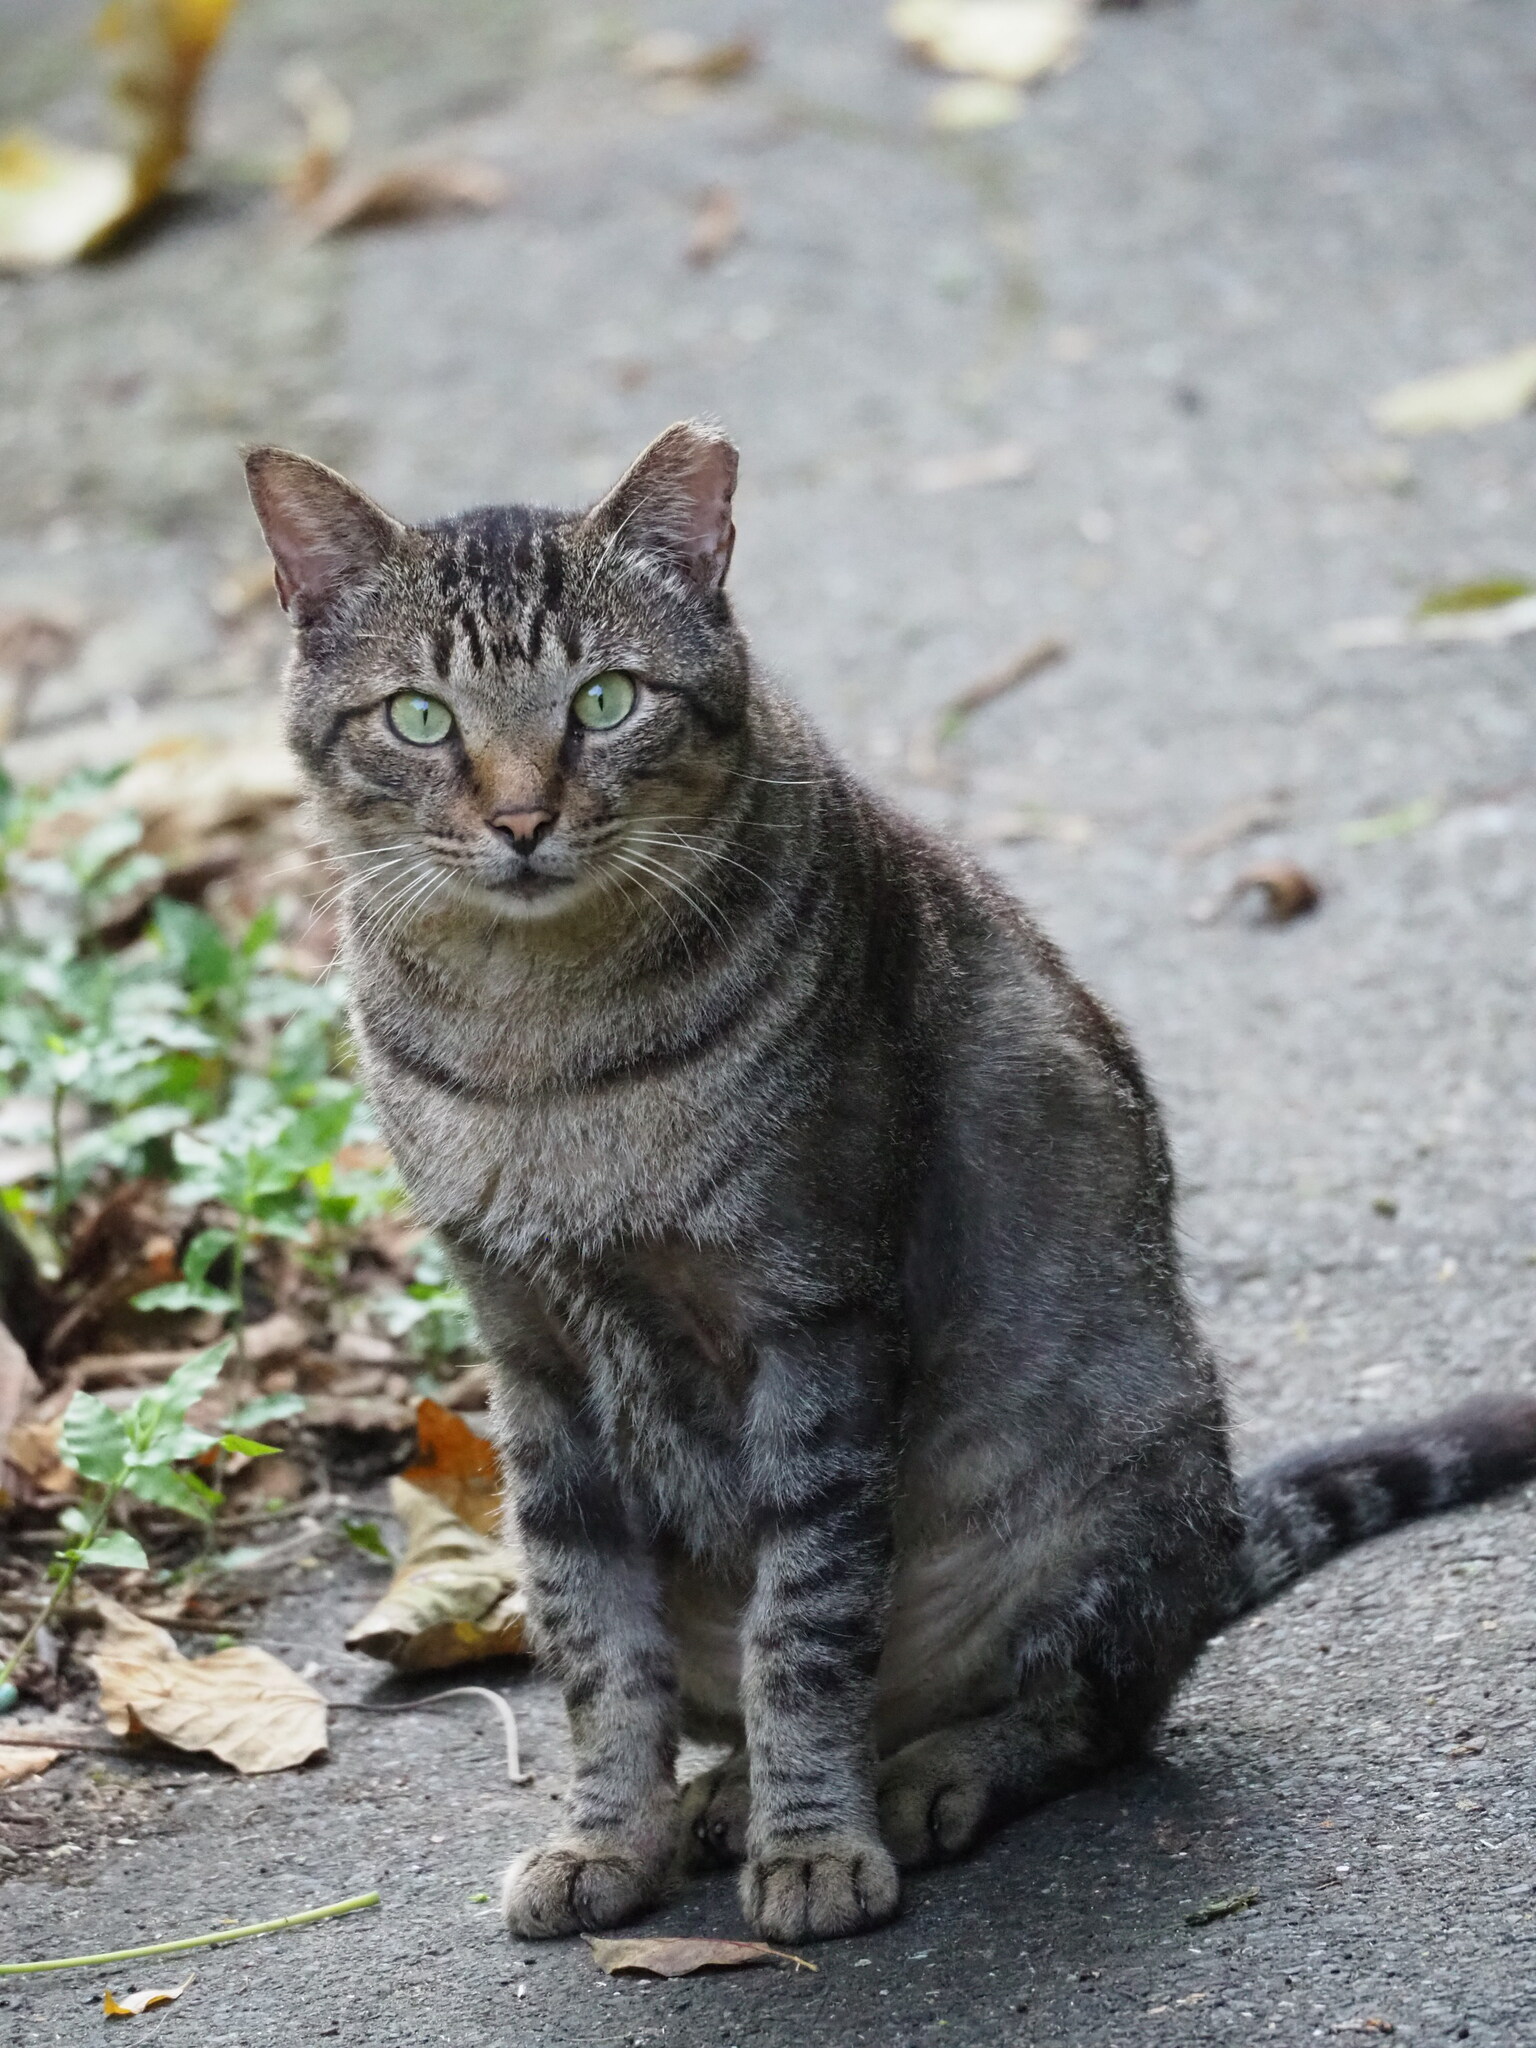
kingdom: Animalia
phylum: Chordata
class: Mammalia
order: Carnivora
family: Felidae
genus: Felis
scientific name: Felis catus
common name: Domestic cat
